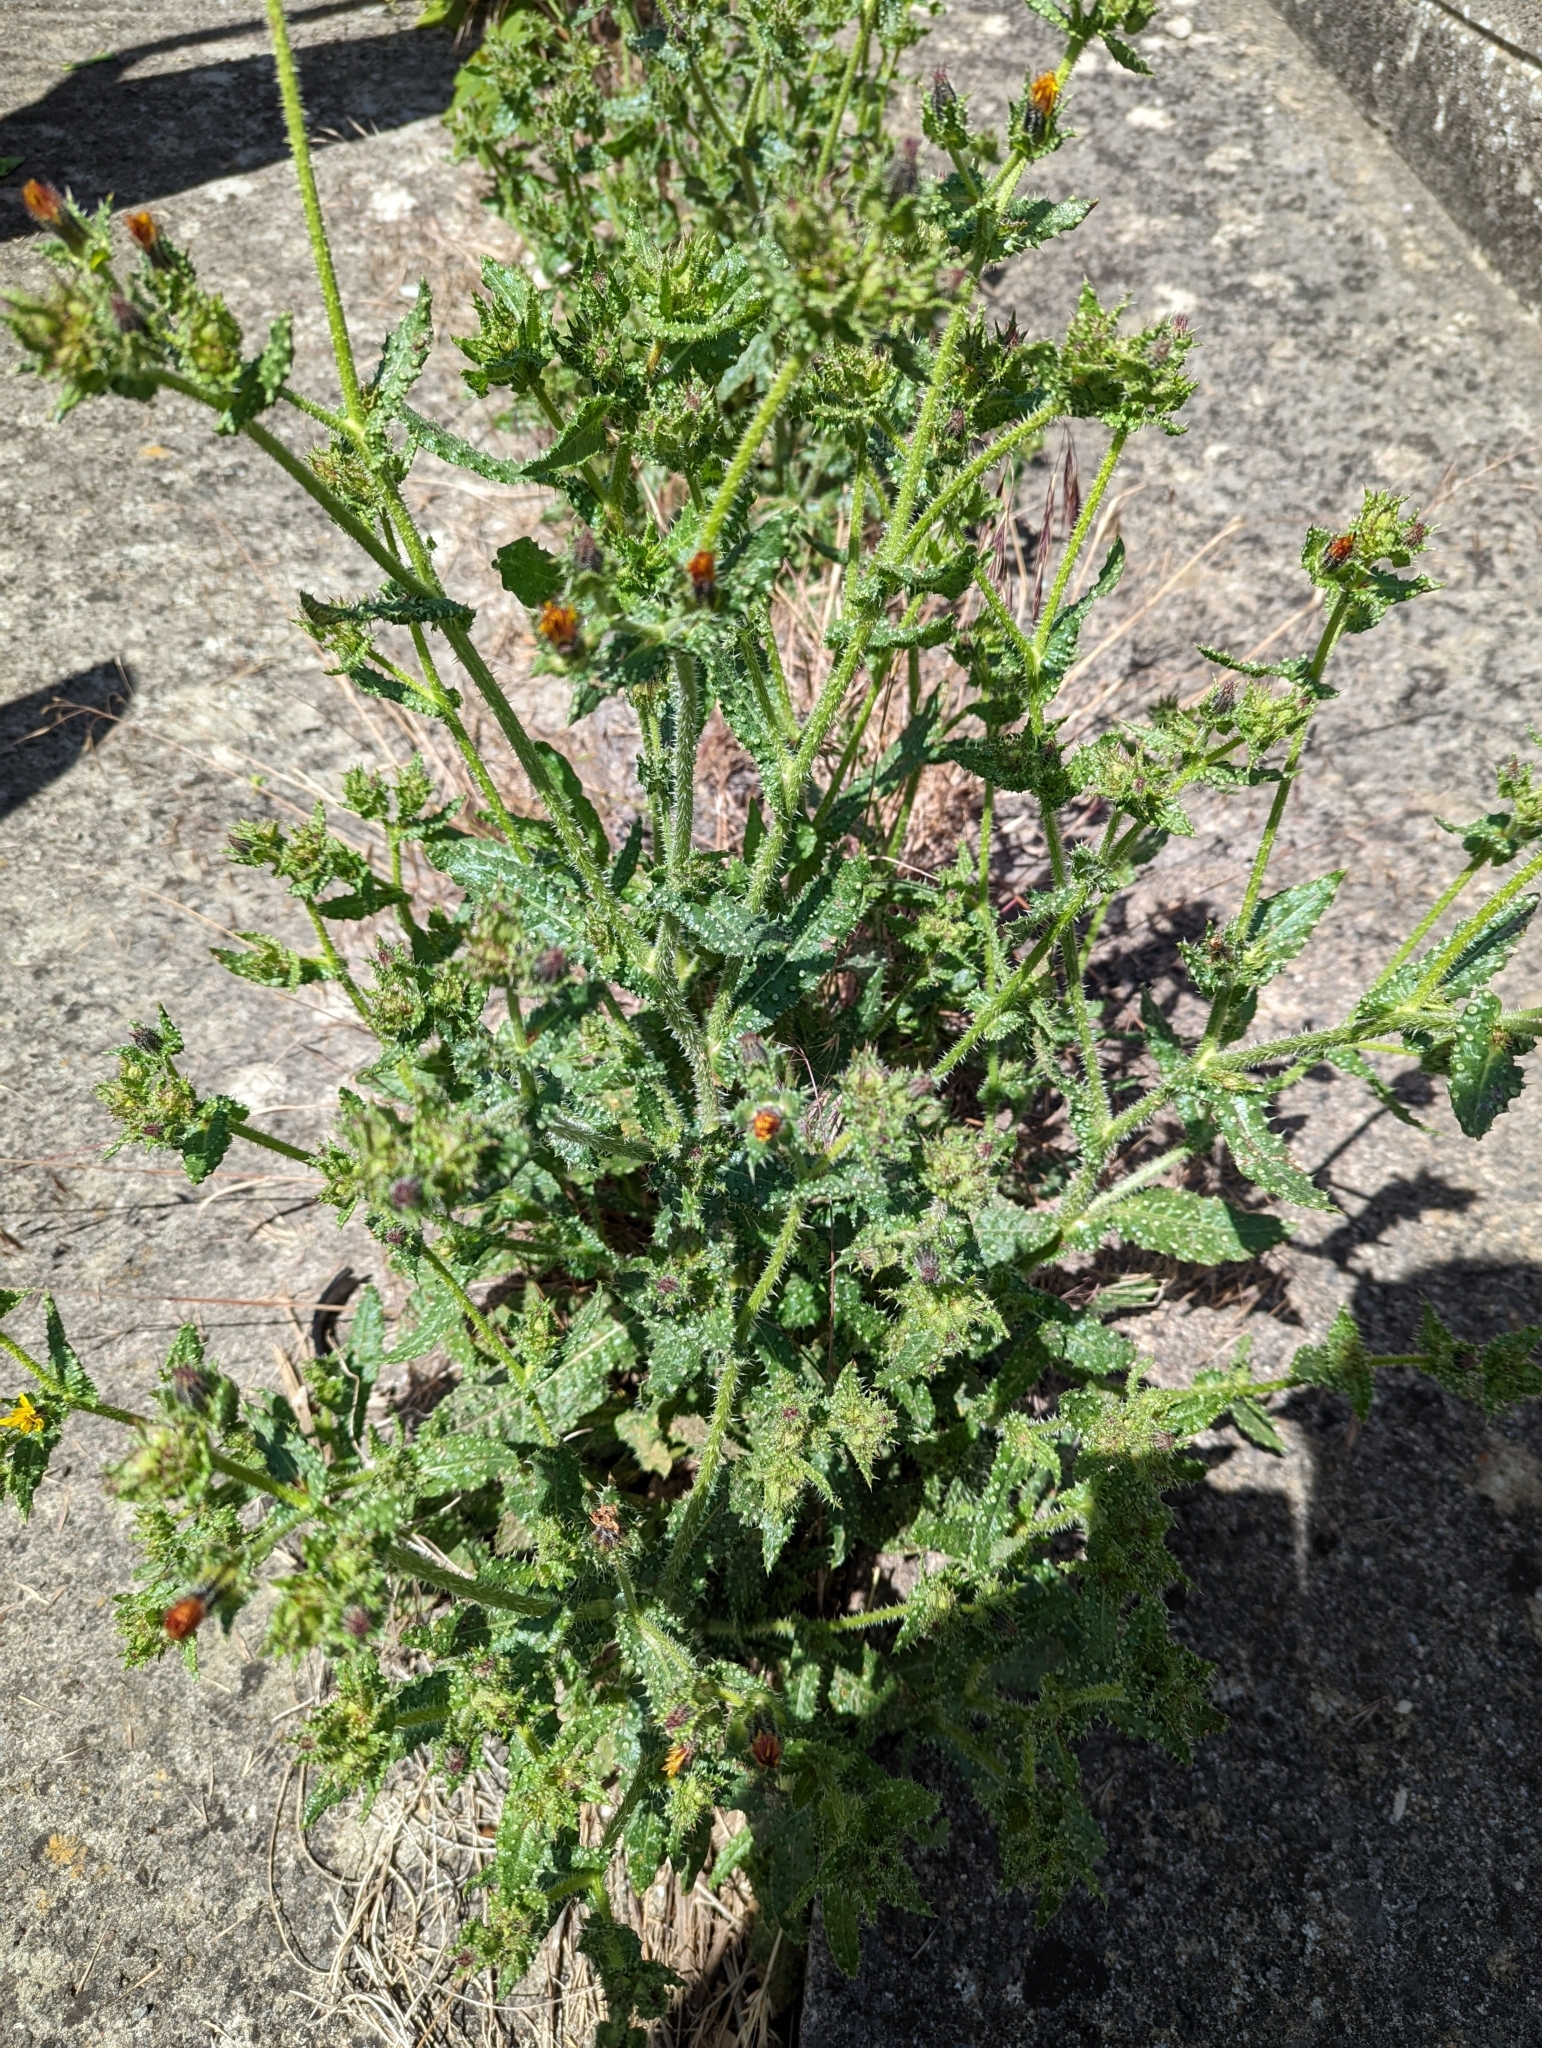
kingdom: Plantae
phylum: Tracheophyta
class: Magnoliopsida
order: Asterales
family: Asteraceae
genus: Helminthotheca
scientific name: Helminthotheca echioides
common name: Ox-tongue
